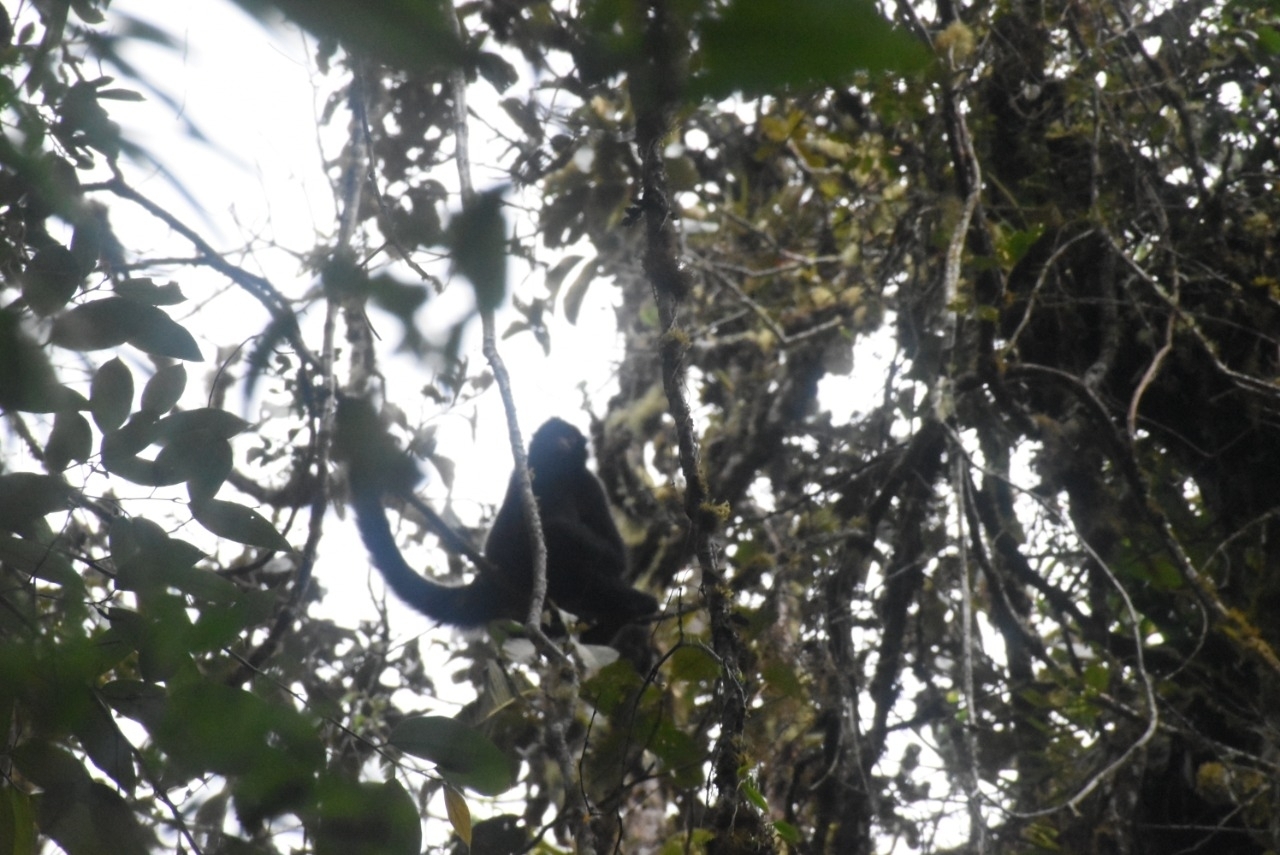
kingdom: Animalia
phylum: Chordata
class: Mammalia
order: Primates
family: Atelidae
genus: Ateles
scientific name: Ateles chamek
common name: Peruvian spider monkey
